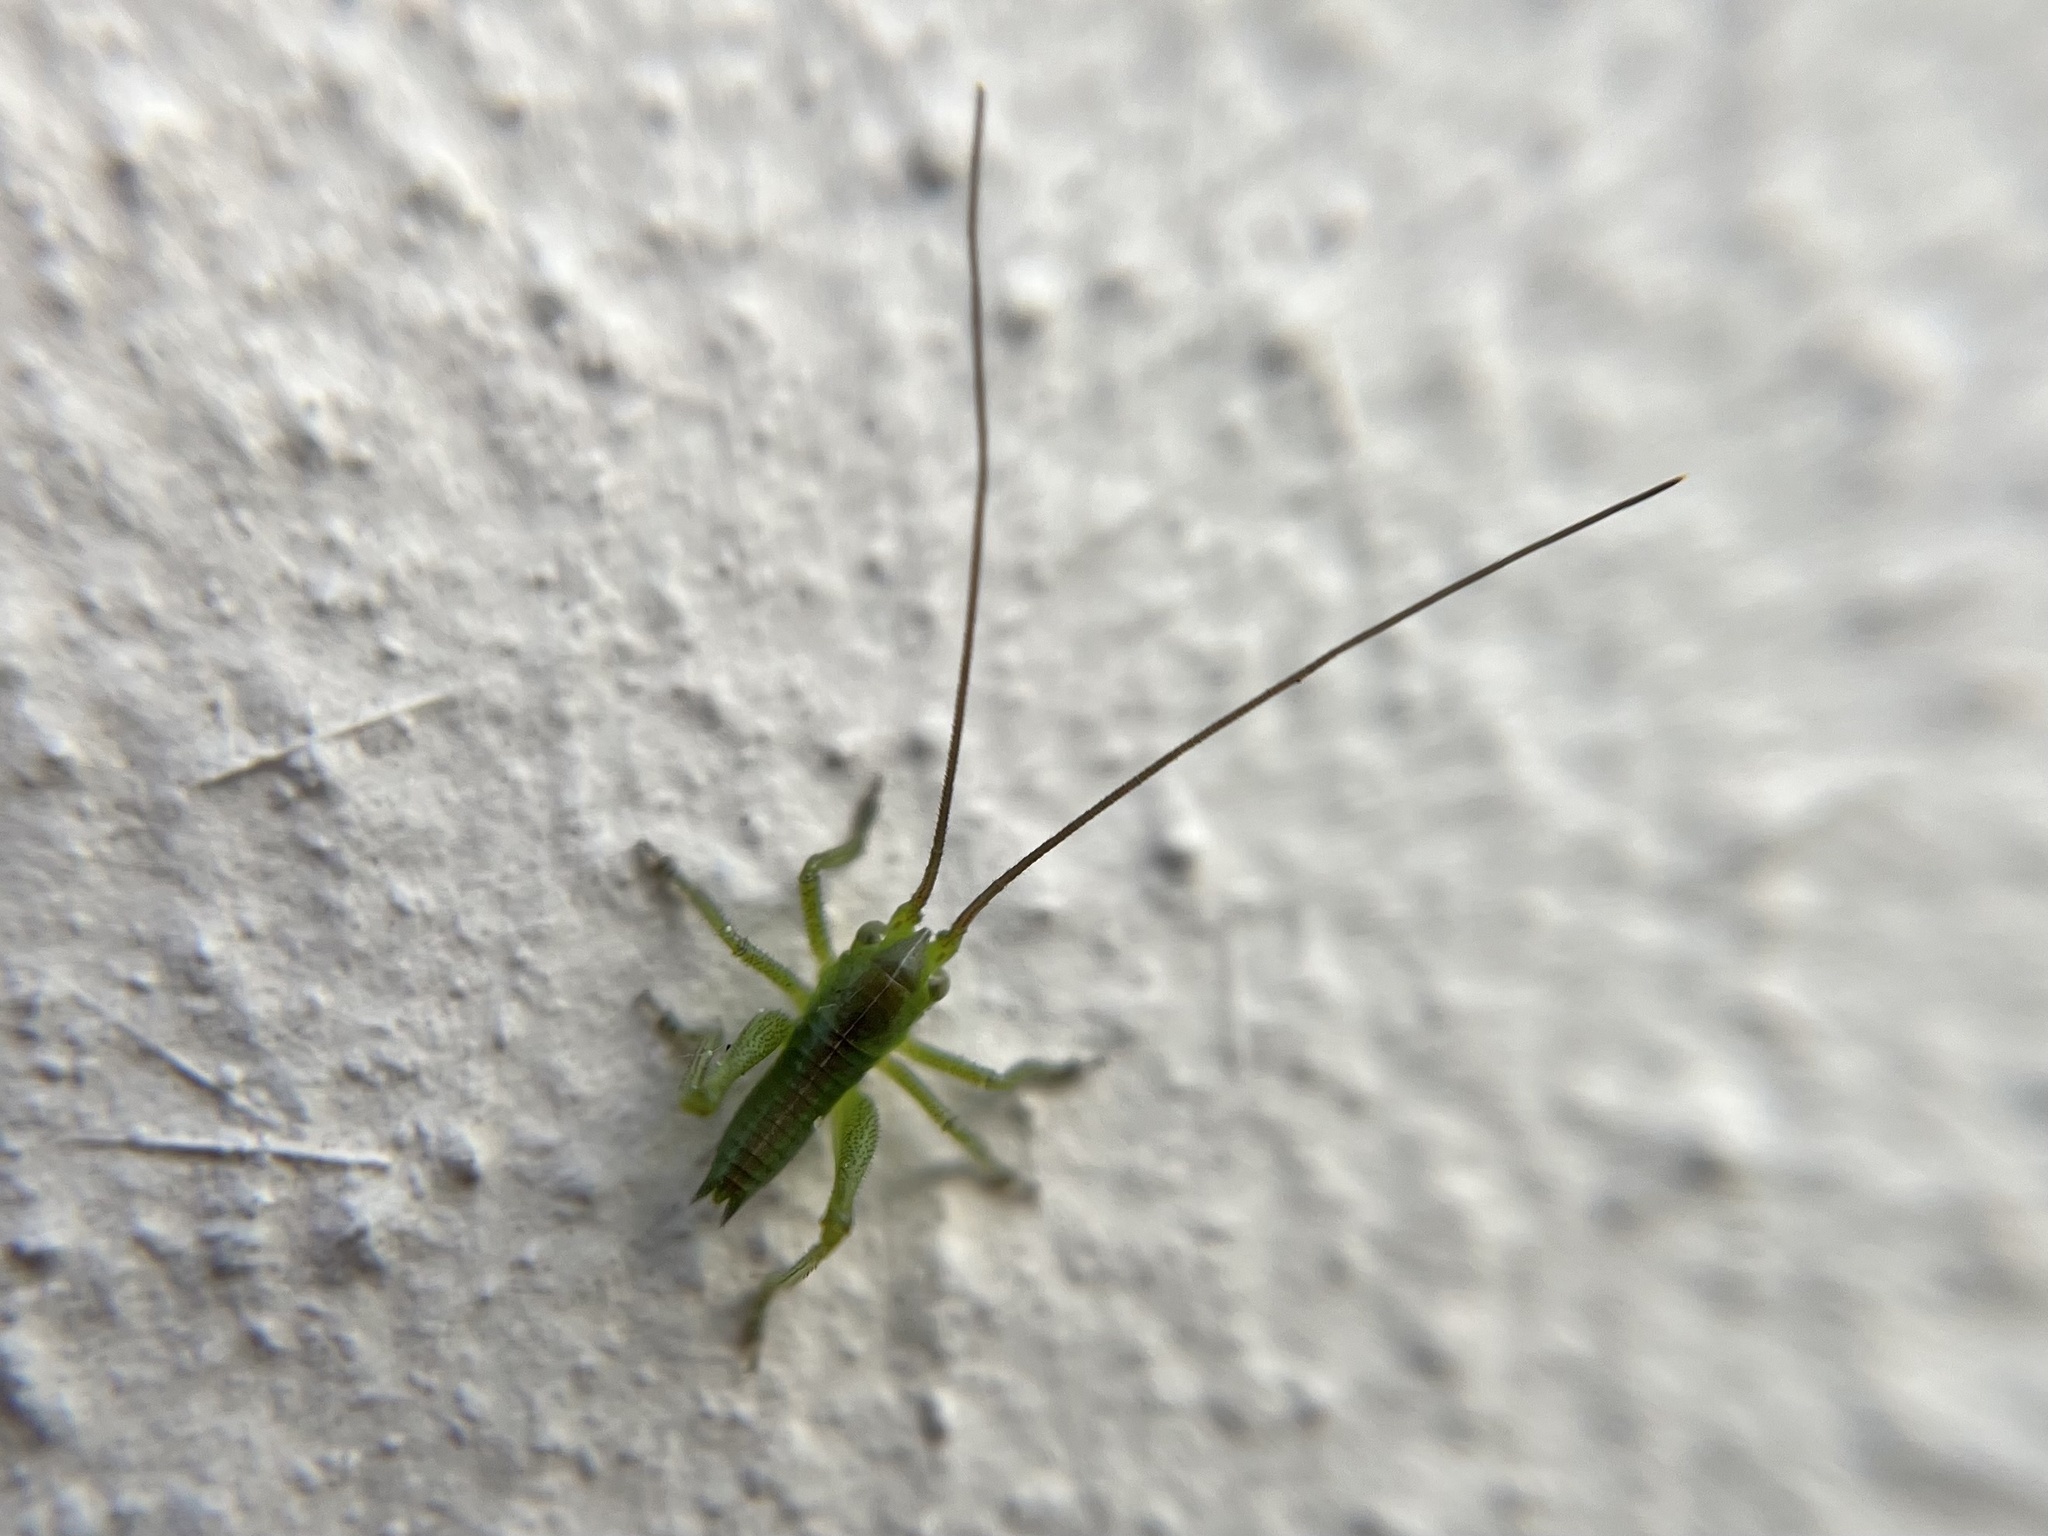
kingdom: Animalia
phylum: Arthropoda
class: Insecta
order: Orthoptera
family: Tettigoniidae
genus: Tettigonia
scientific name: Tettigonia viridissima
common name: Great green bush-cricket
